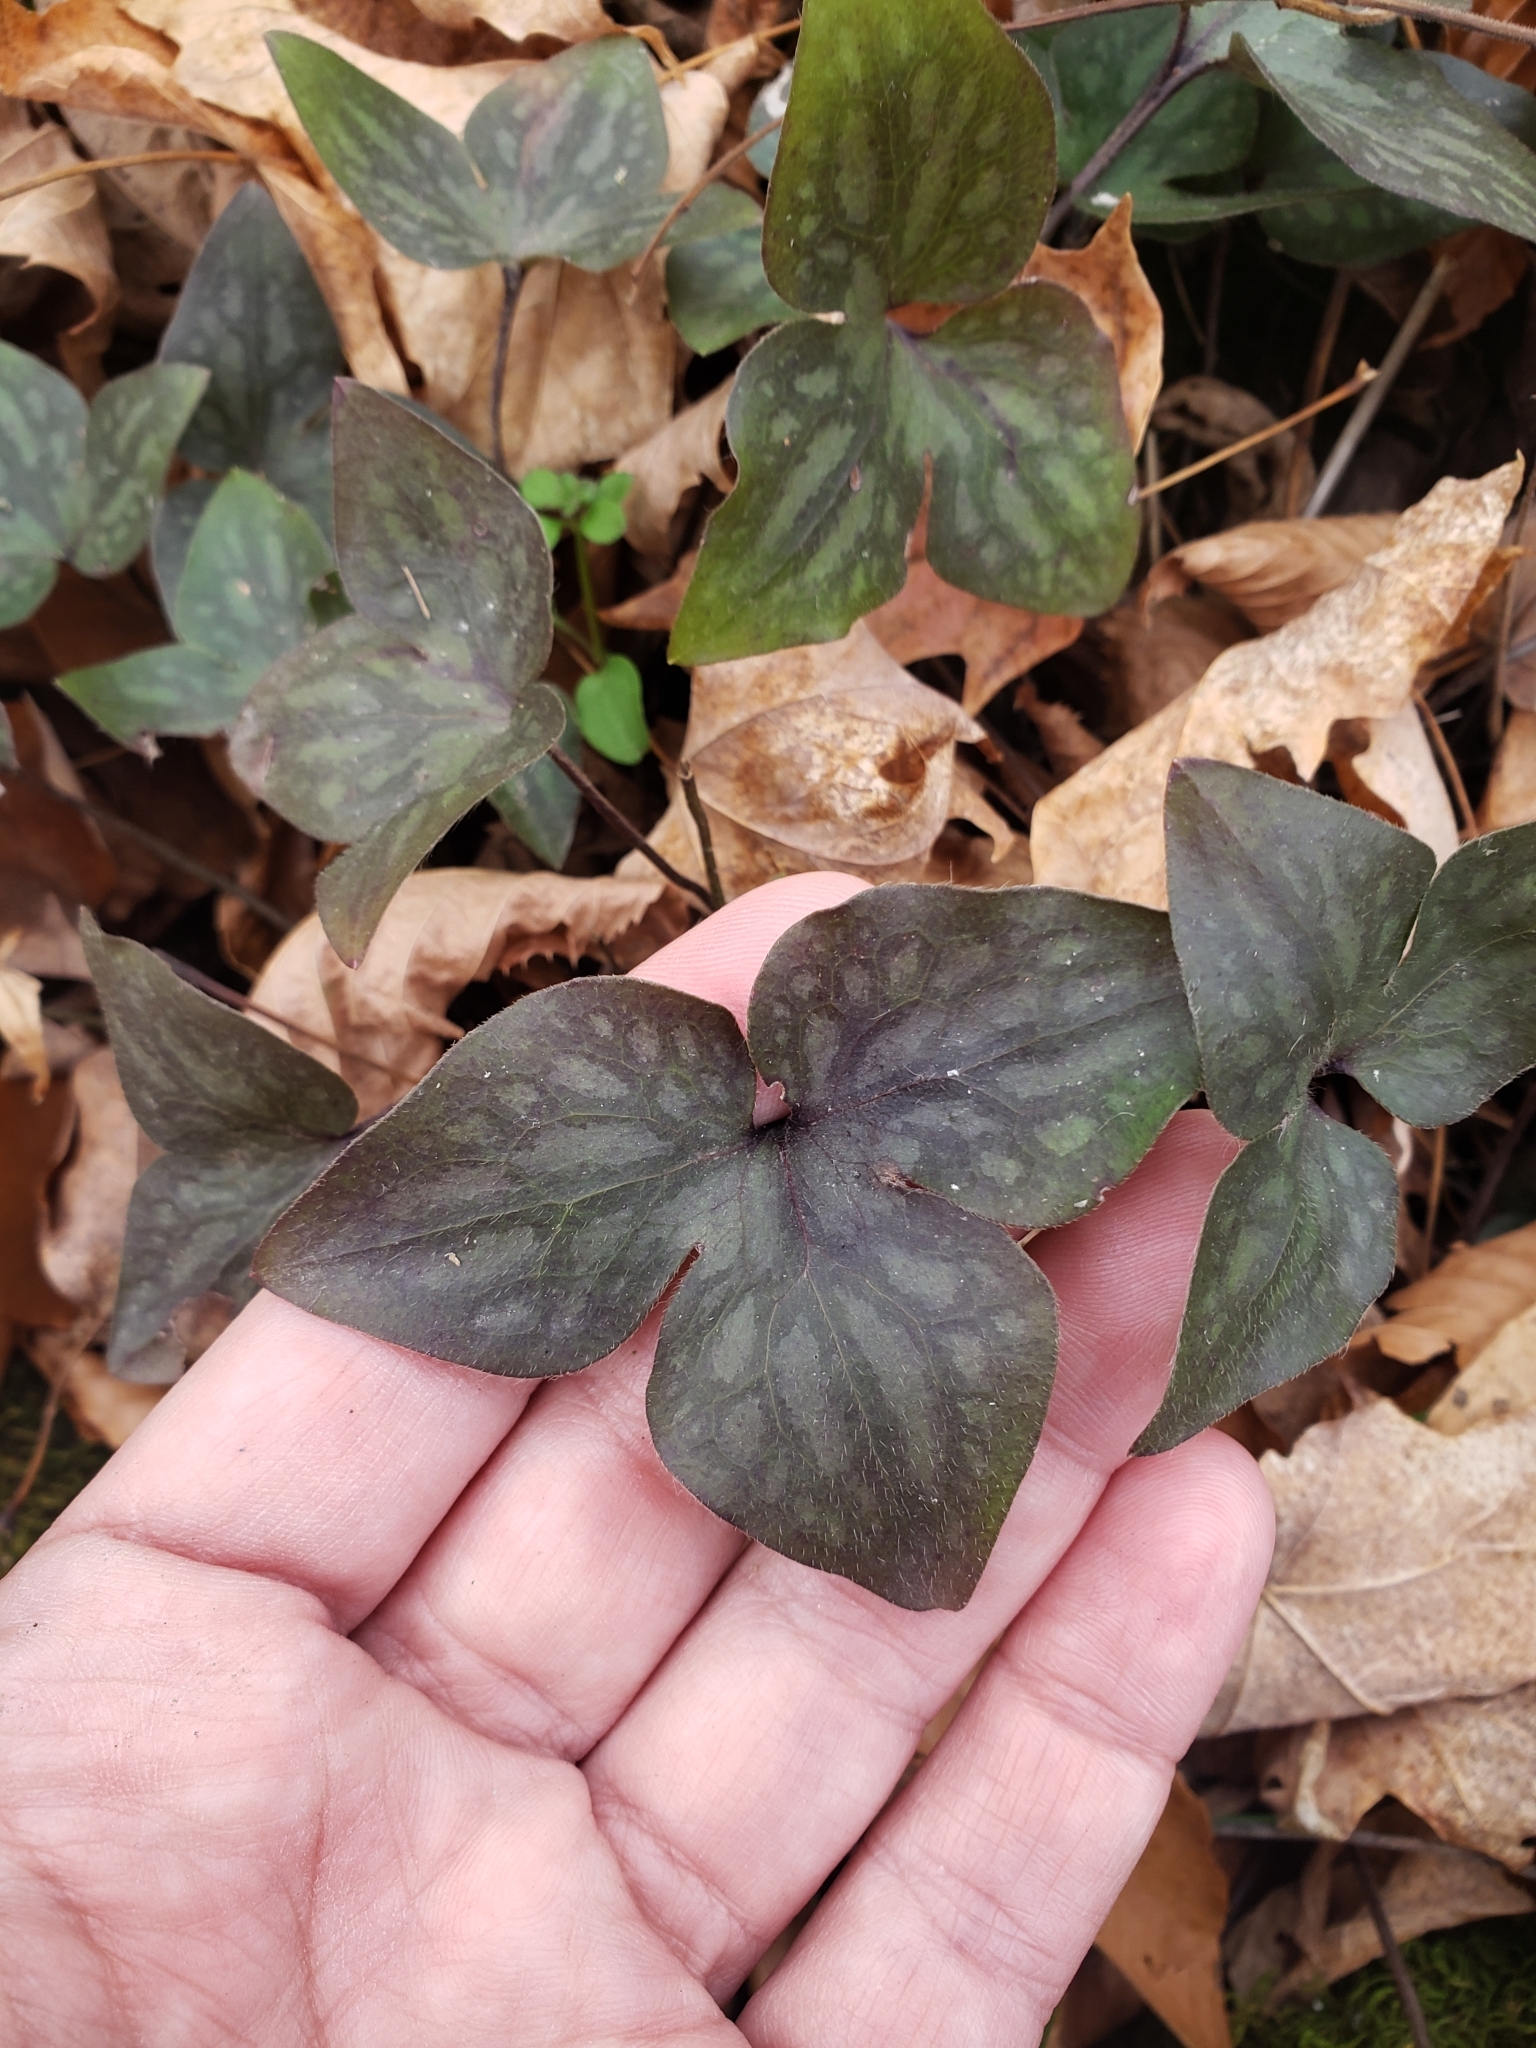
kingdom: Plantae
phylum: Tracheophyta
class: Magnoliopsida
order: Ranunculales
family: Ranunculaceae
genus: Hepatica
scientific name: Hepatica acutiloba
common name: Sharp-lobed hepatica
